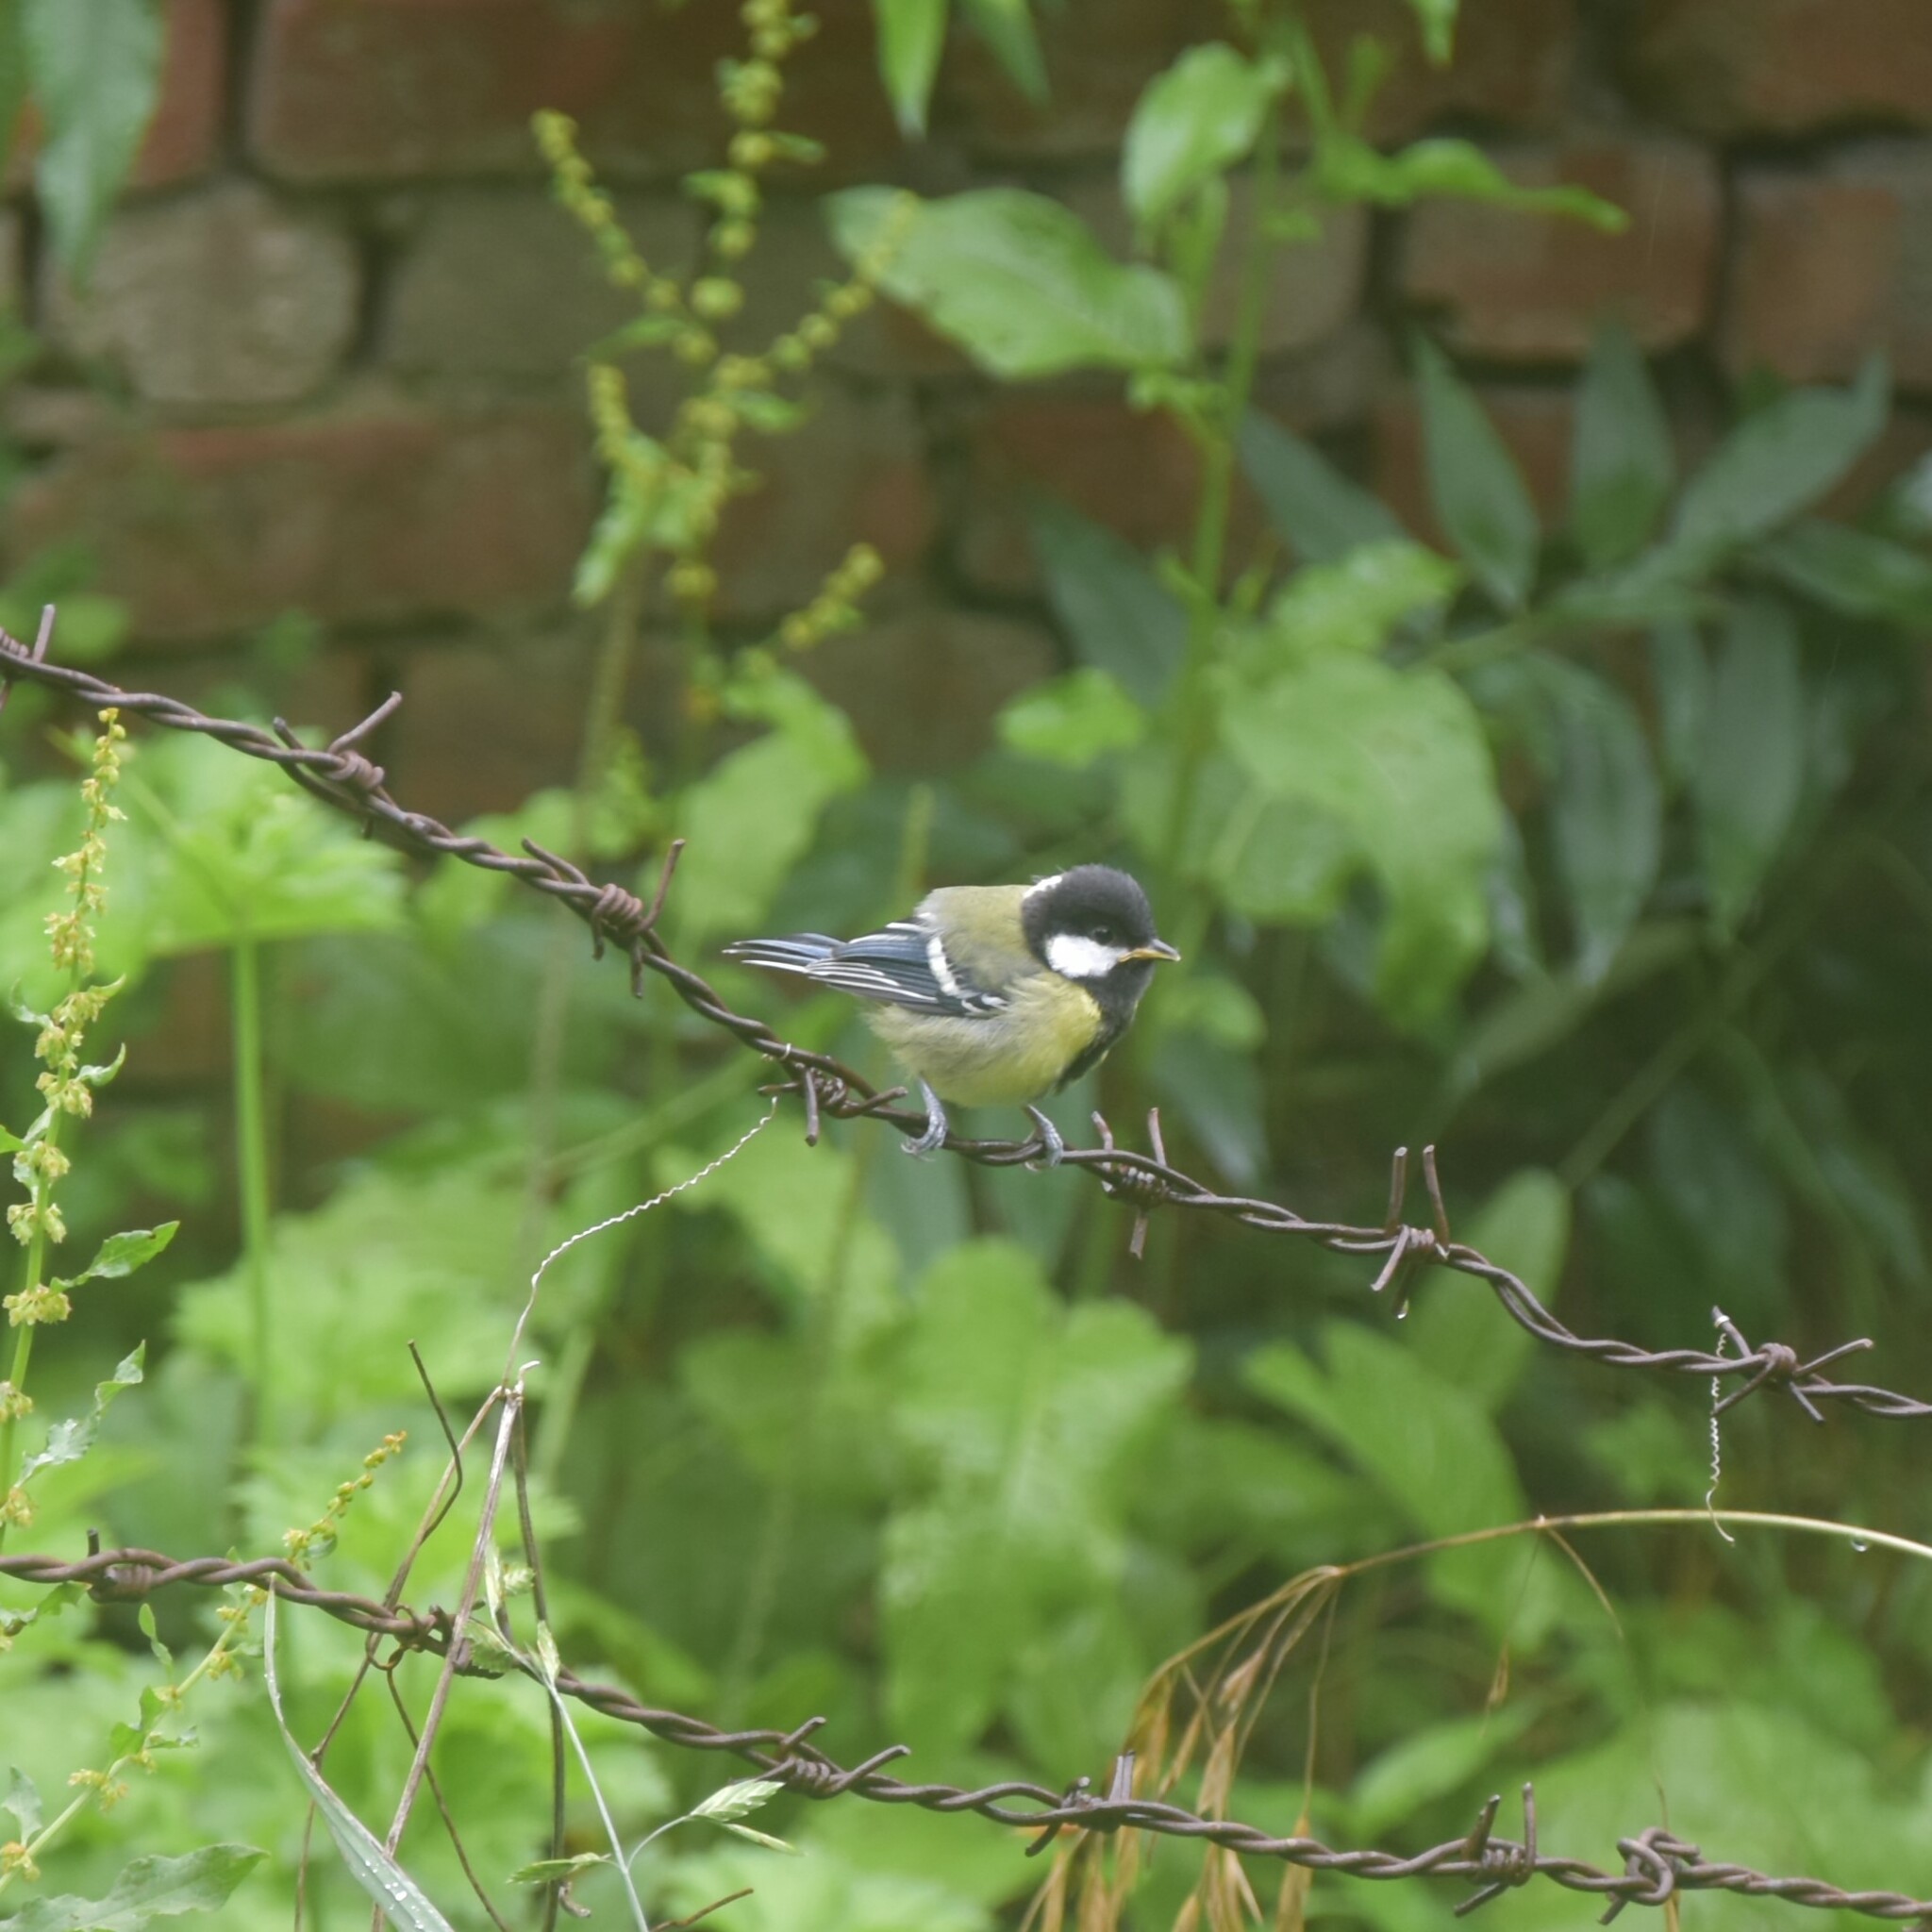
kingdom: Animalia
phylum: Chordata
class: Aves
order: Passeriformes
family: Paridae
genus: Parus
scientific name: Parus monticolus
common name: Green-backed tit
